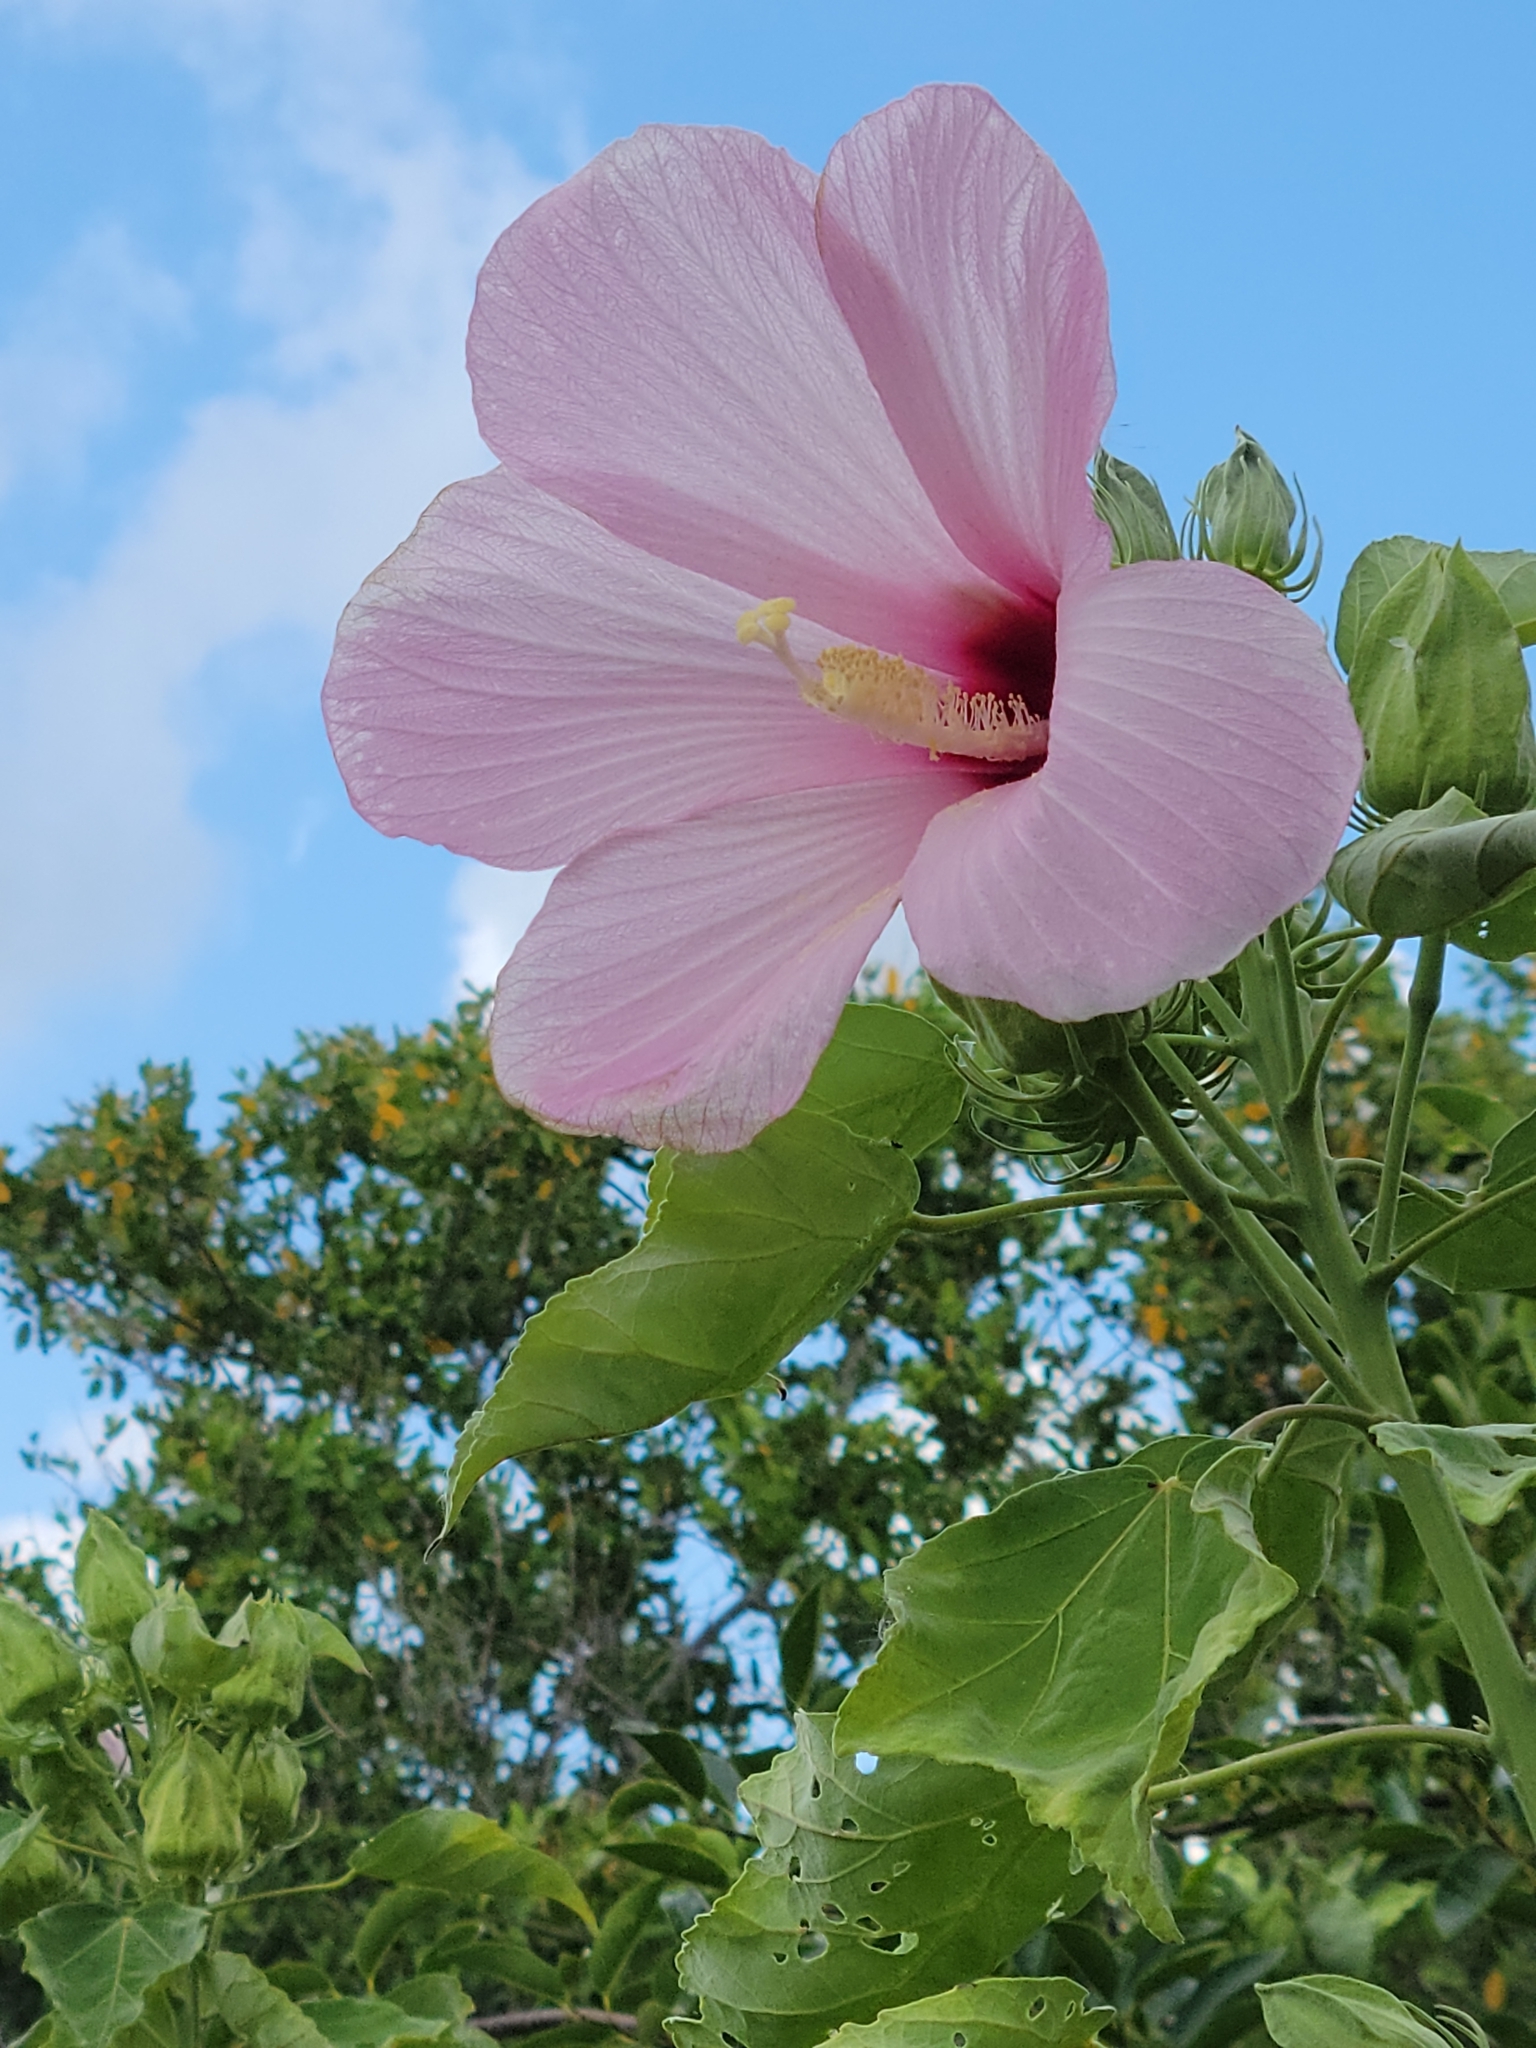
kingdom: Plantae
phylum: Tracheophyta
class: Magnoliopsida
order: Malvales
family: Malvaceae
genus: Hibiscus
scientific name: Hibiscus grandiflorus
